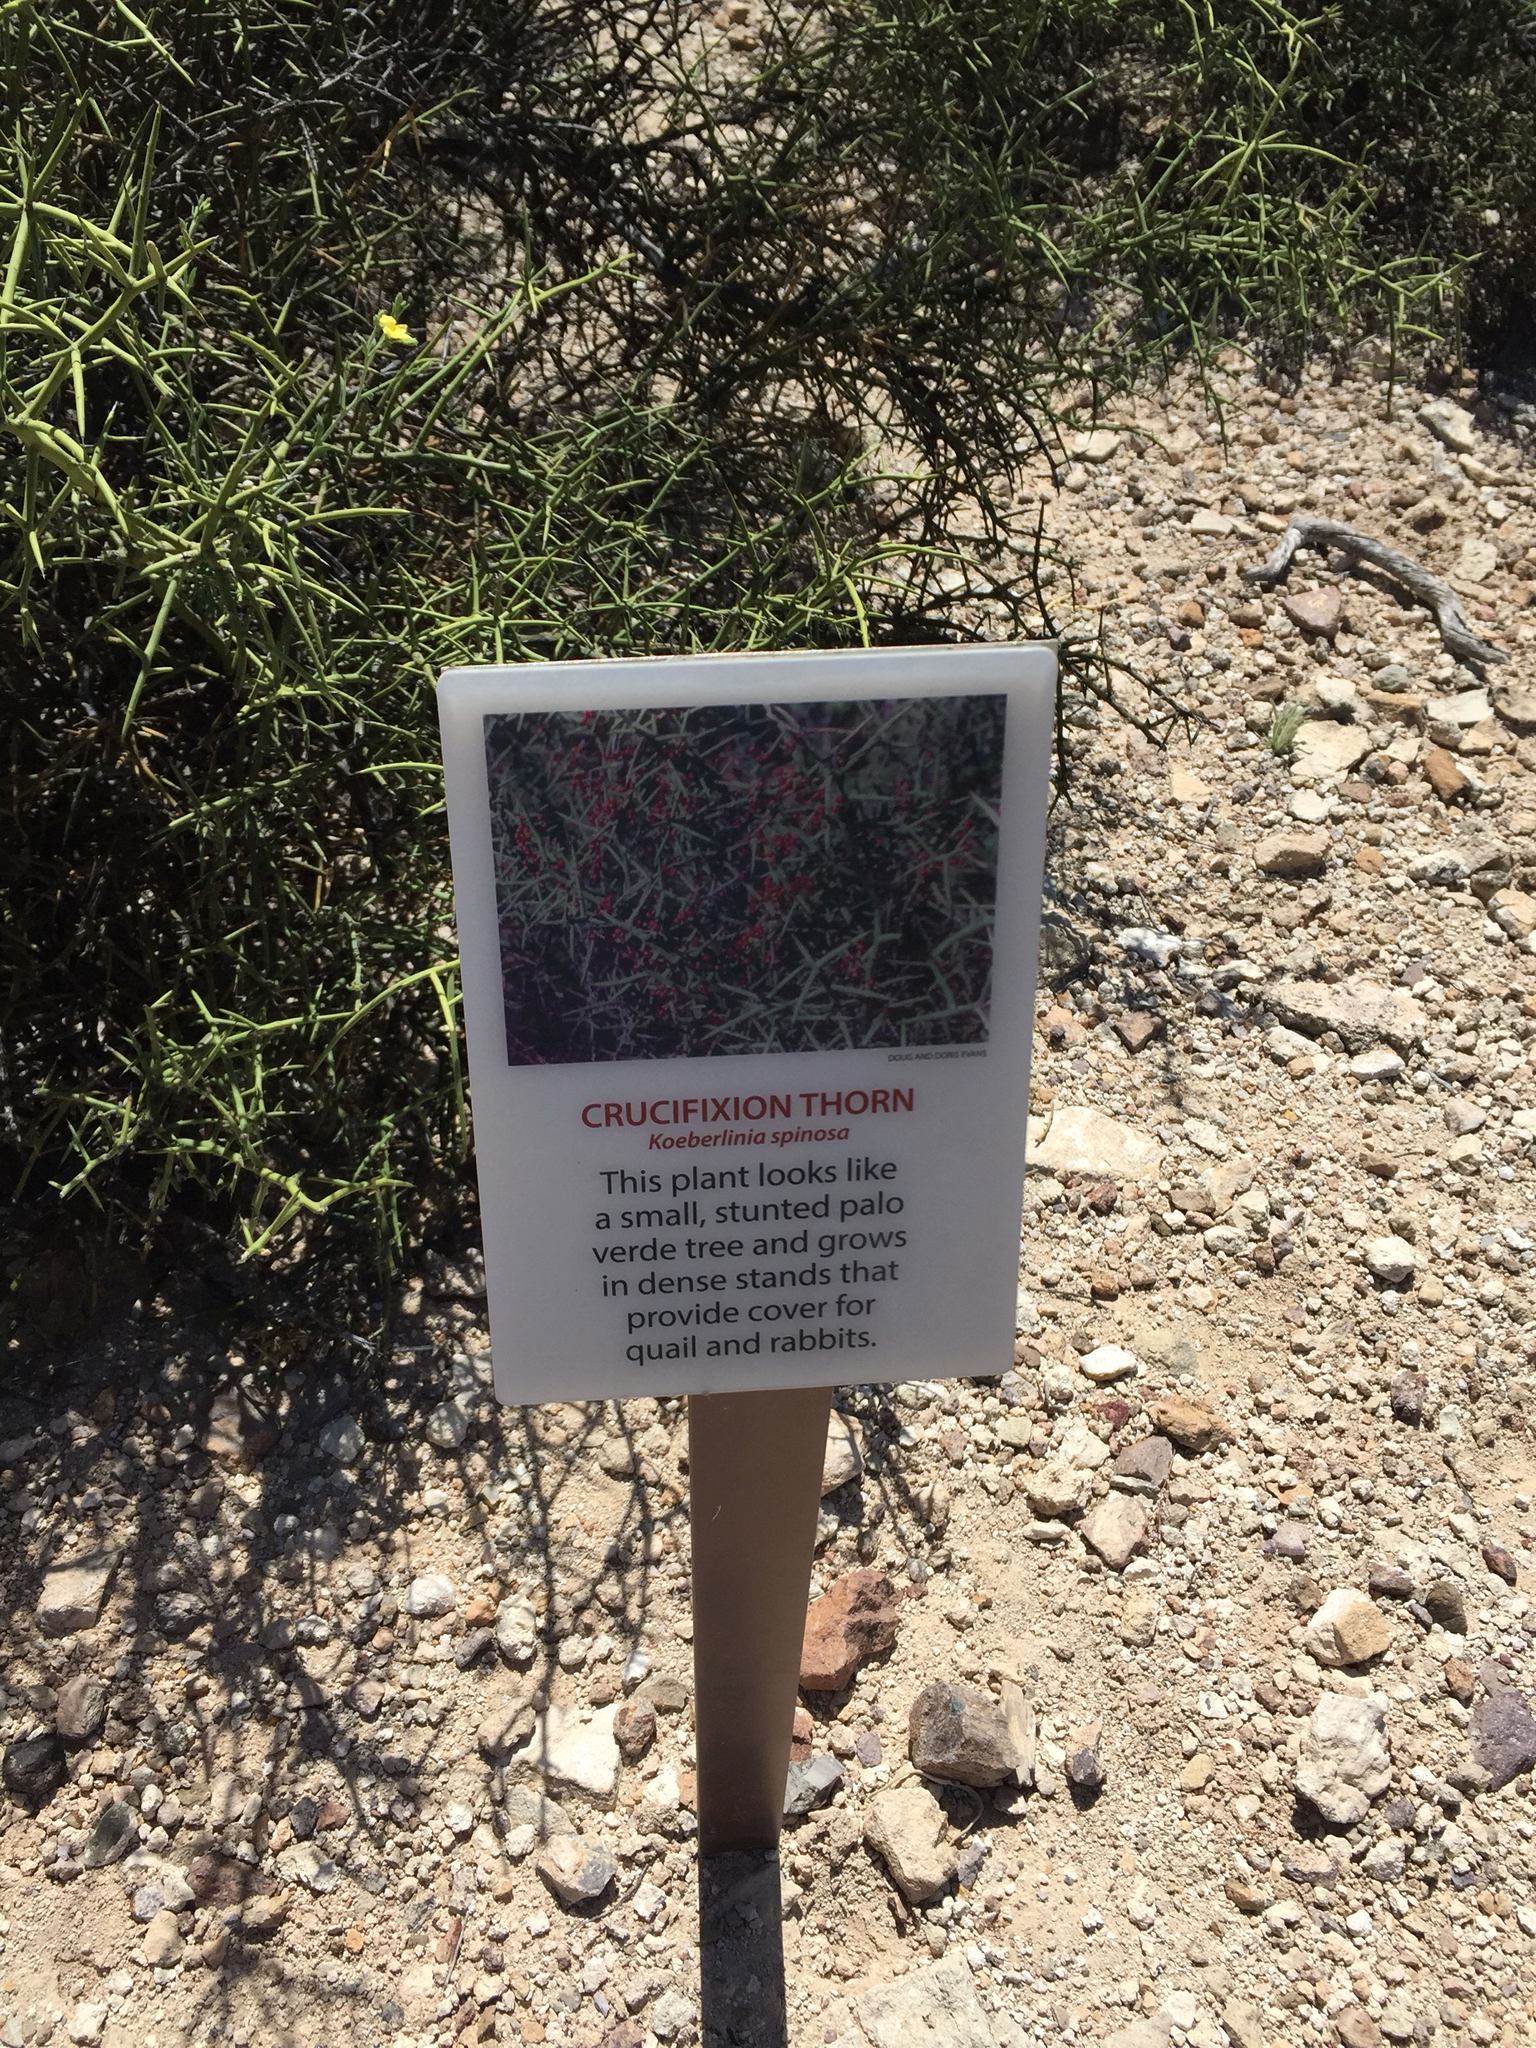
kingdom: Plantae
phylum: Tracheophyta
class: Magnoliopsida
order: Brassicales
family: Koeberliniaceae
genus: Koeberlinia
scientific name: Koeberlinia spinosa
